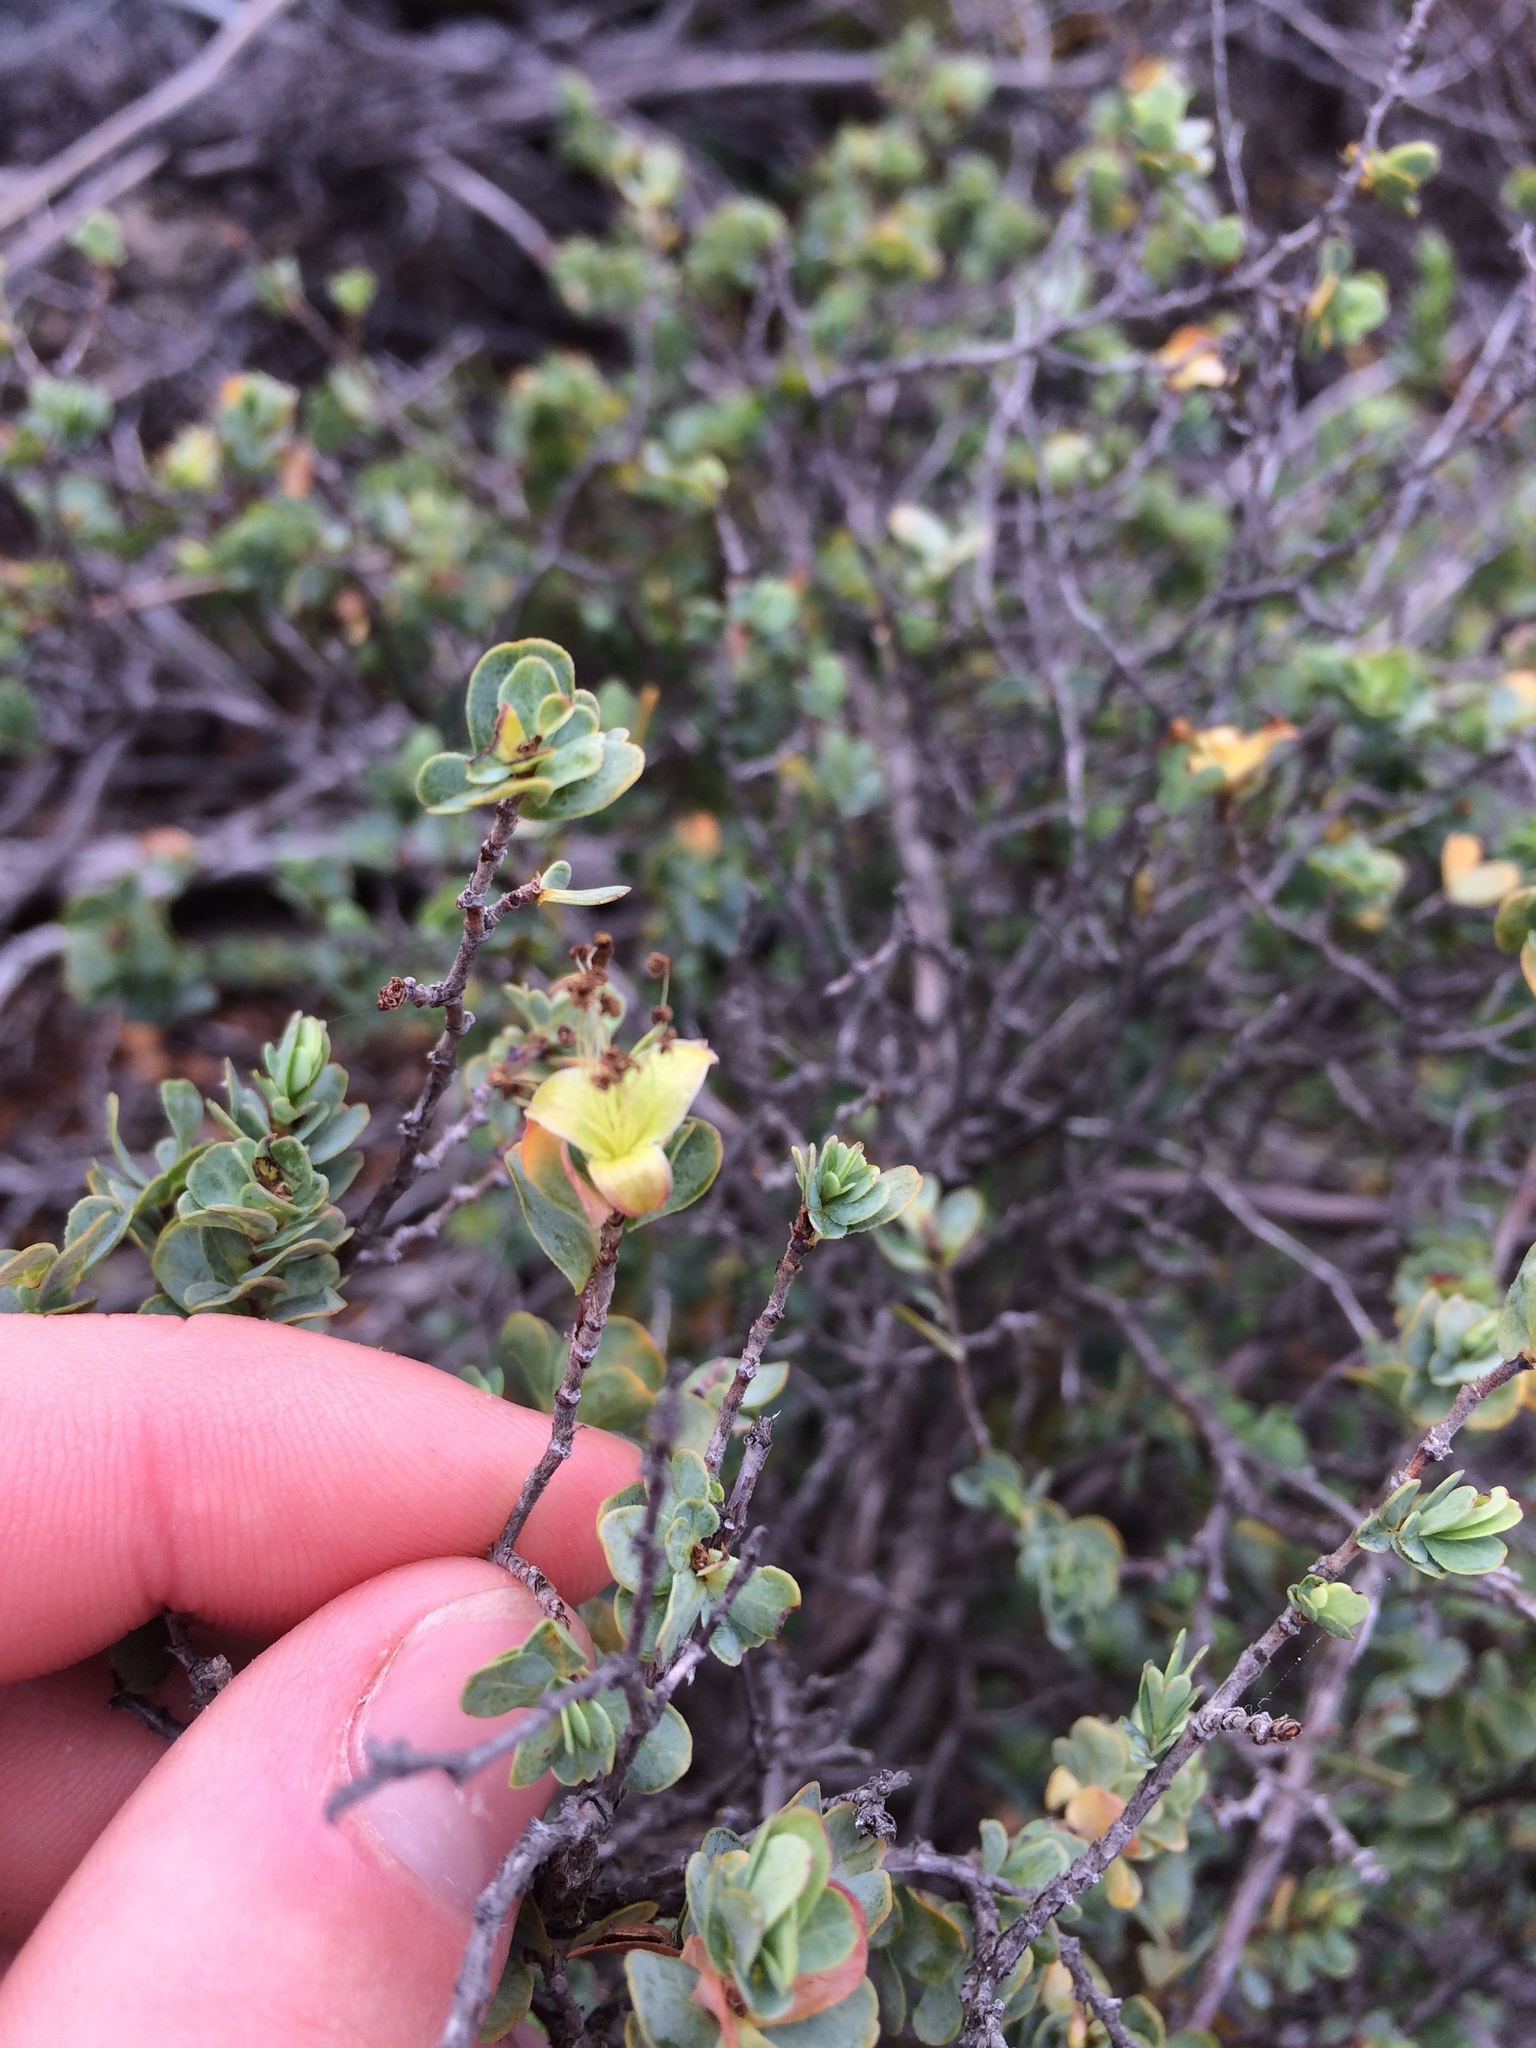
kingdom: Plantae
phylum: Tracheophyta
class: Magnoliopsida
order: Rosales
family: Rosaceae
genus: Cliffortia
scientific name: Cliffortia obcordata
